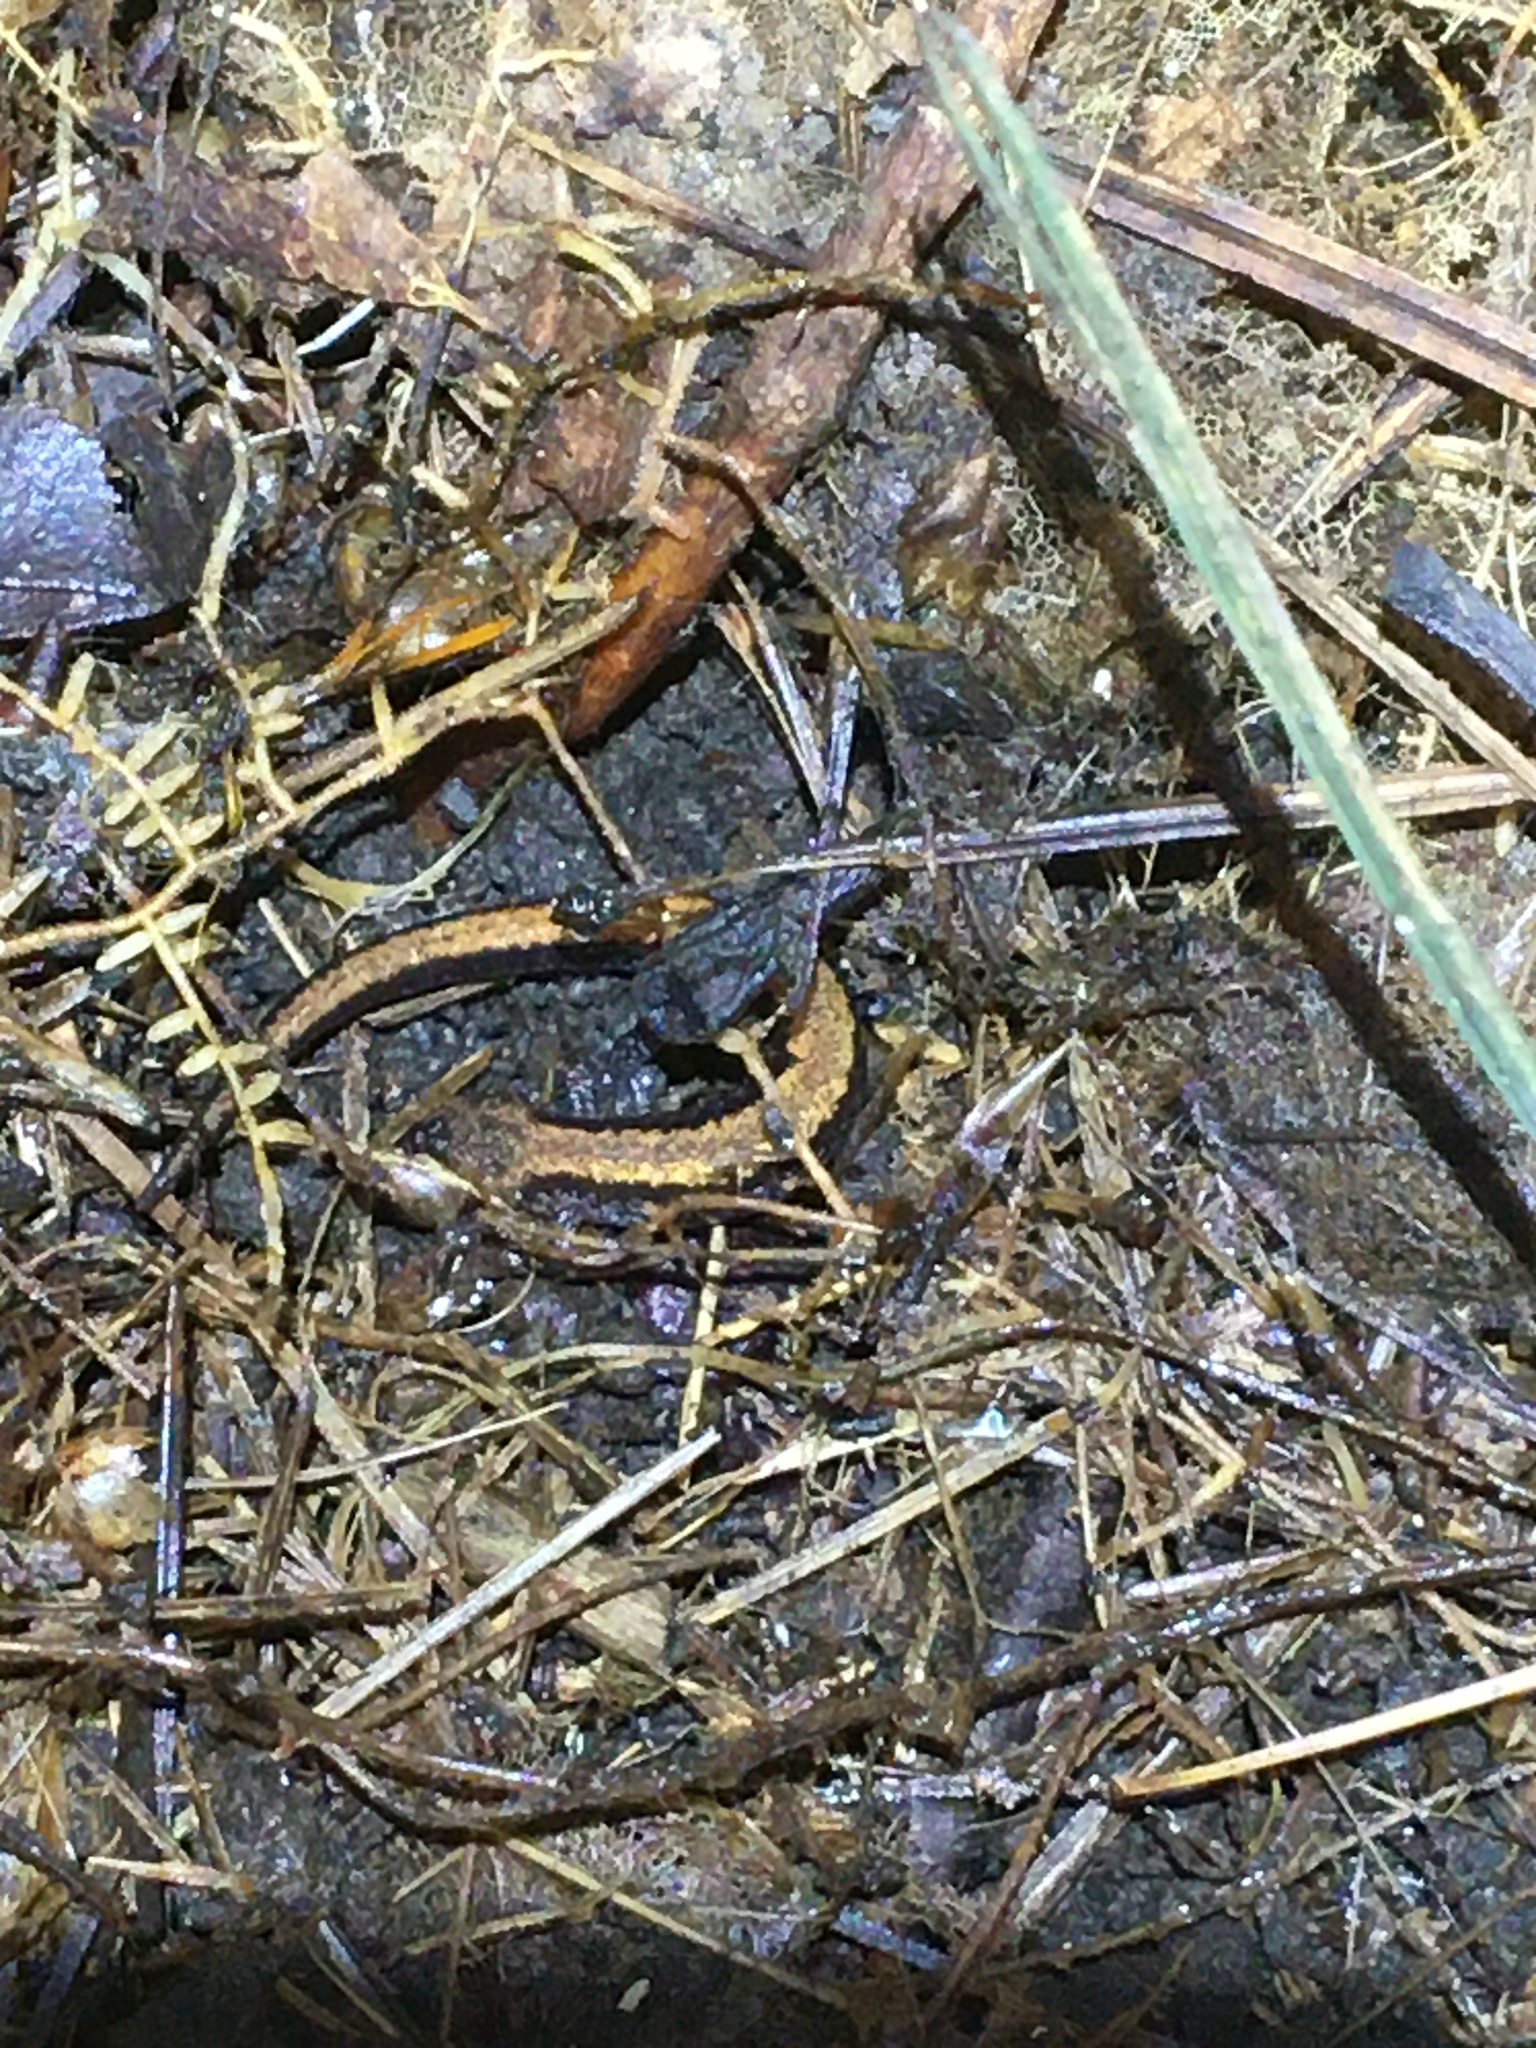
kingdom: Animalia
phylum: Chordata
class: Amphibia
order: Caudata
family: Plethodontidae
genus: Plethodon
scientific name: Plethodon cinereus
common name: Redback salamander
